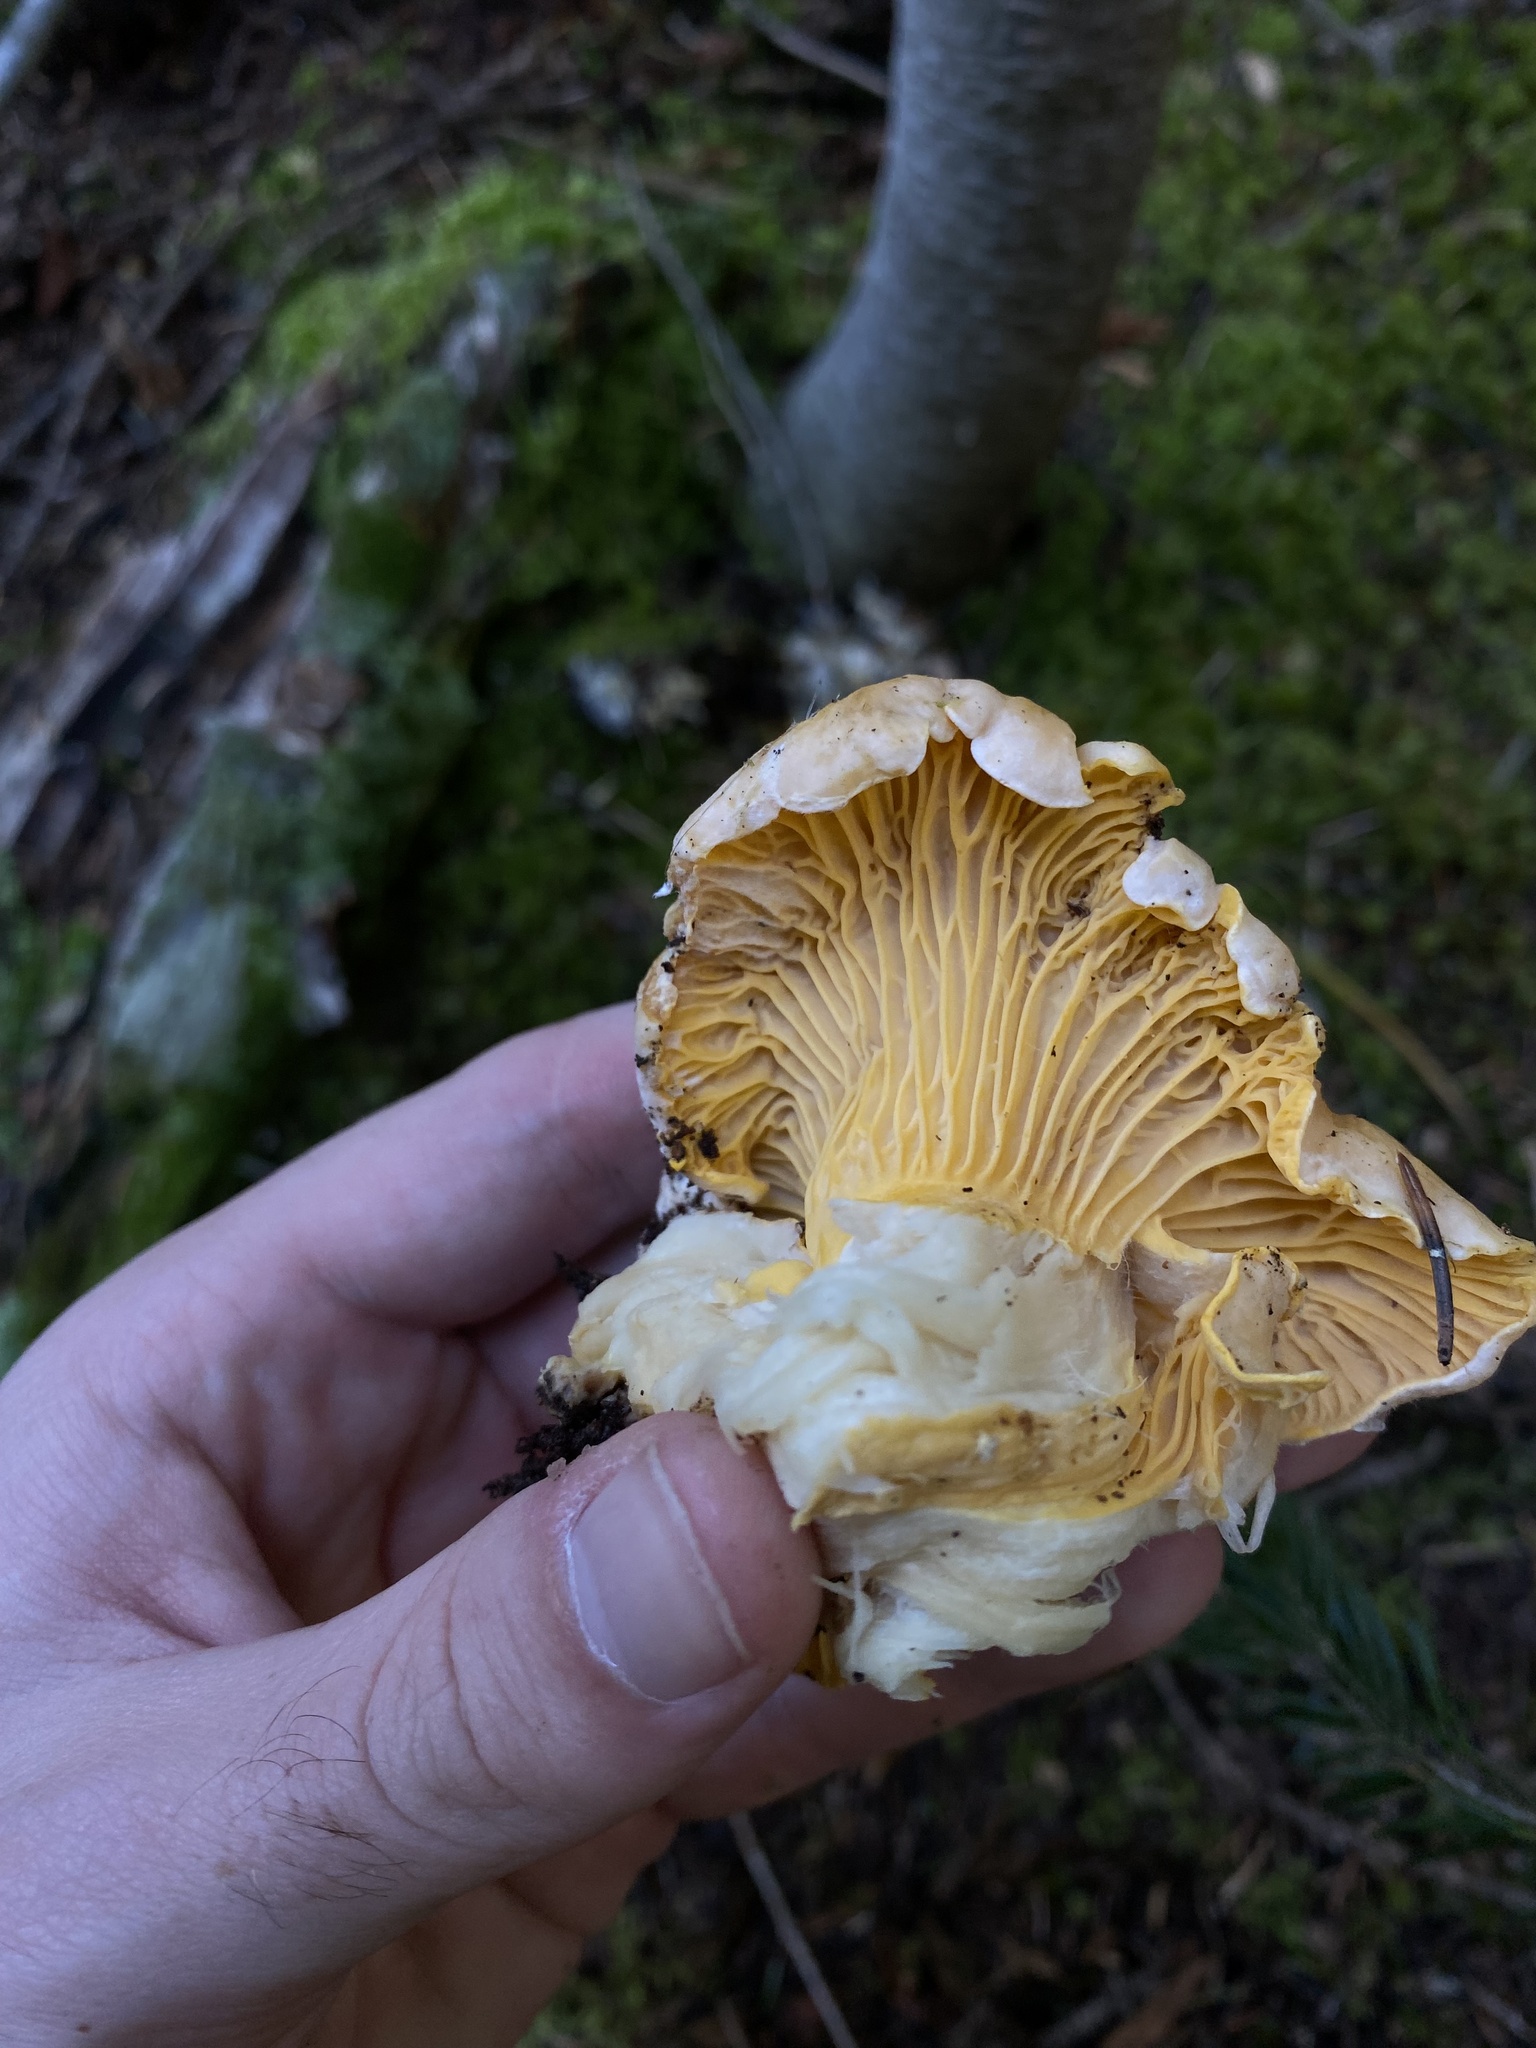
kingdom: Fungi
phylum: Basidiomycota
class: Agaricomycetes
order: Cantharellales
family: Hydnaceae
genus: Cantharellus
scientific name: Cantharellus roseocanus
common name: Rainbow chanterelle
